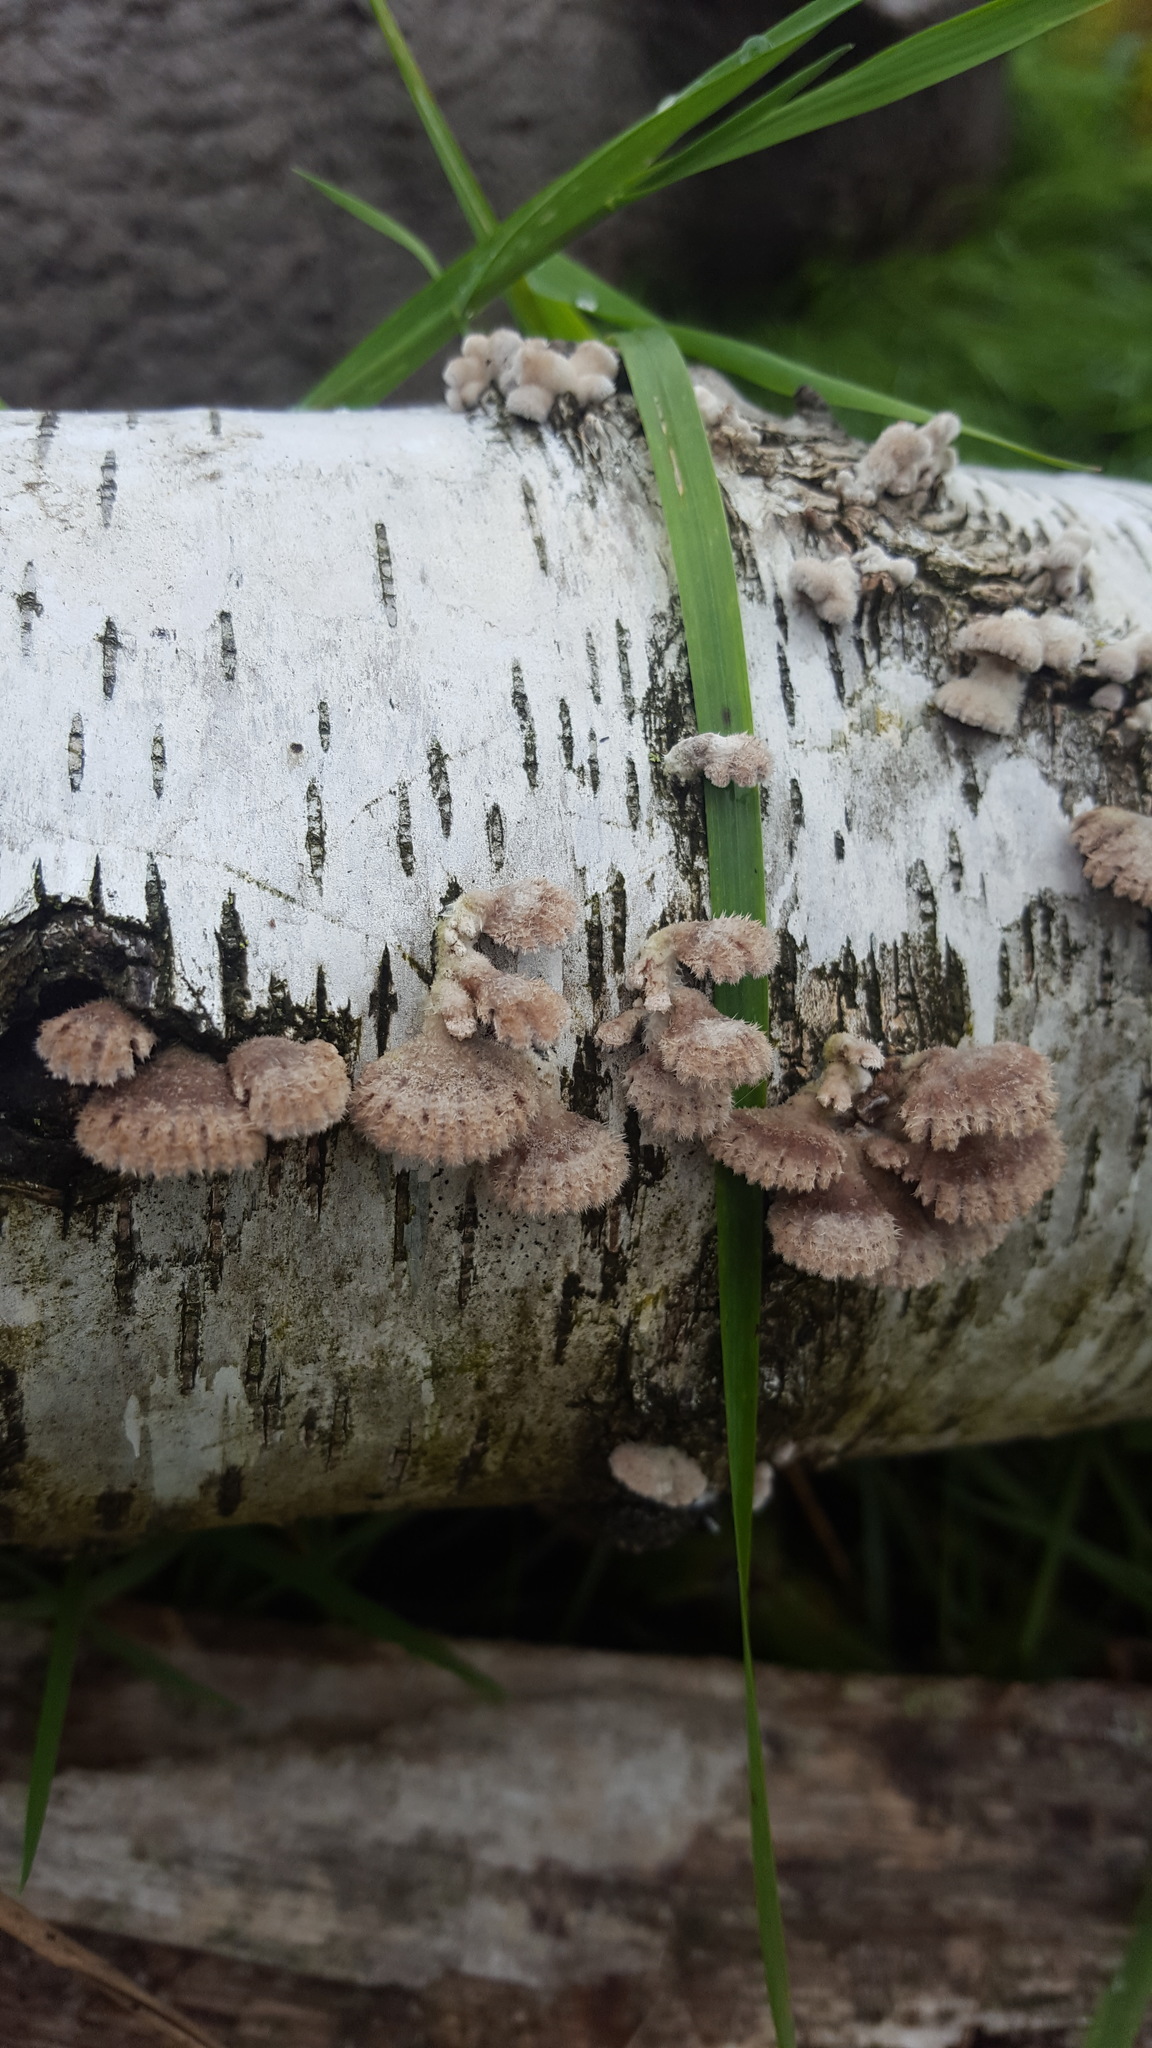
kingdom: Fungi
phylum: Basidiomycota
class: Agaricomycetes
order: Agaricales
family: Schizophyllaceae
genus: Schizophyllum
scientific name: Schizophyllum commune
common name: Common porecrust
